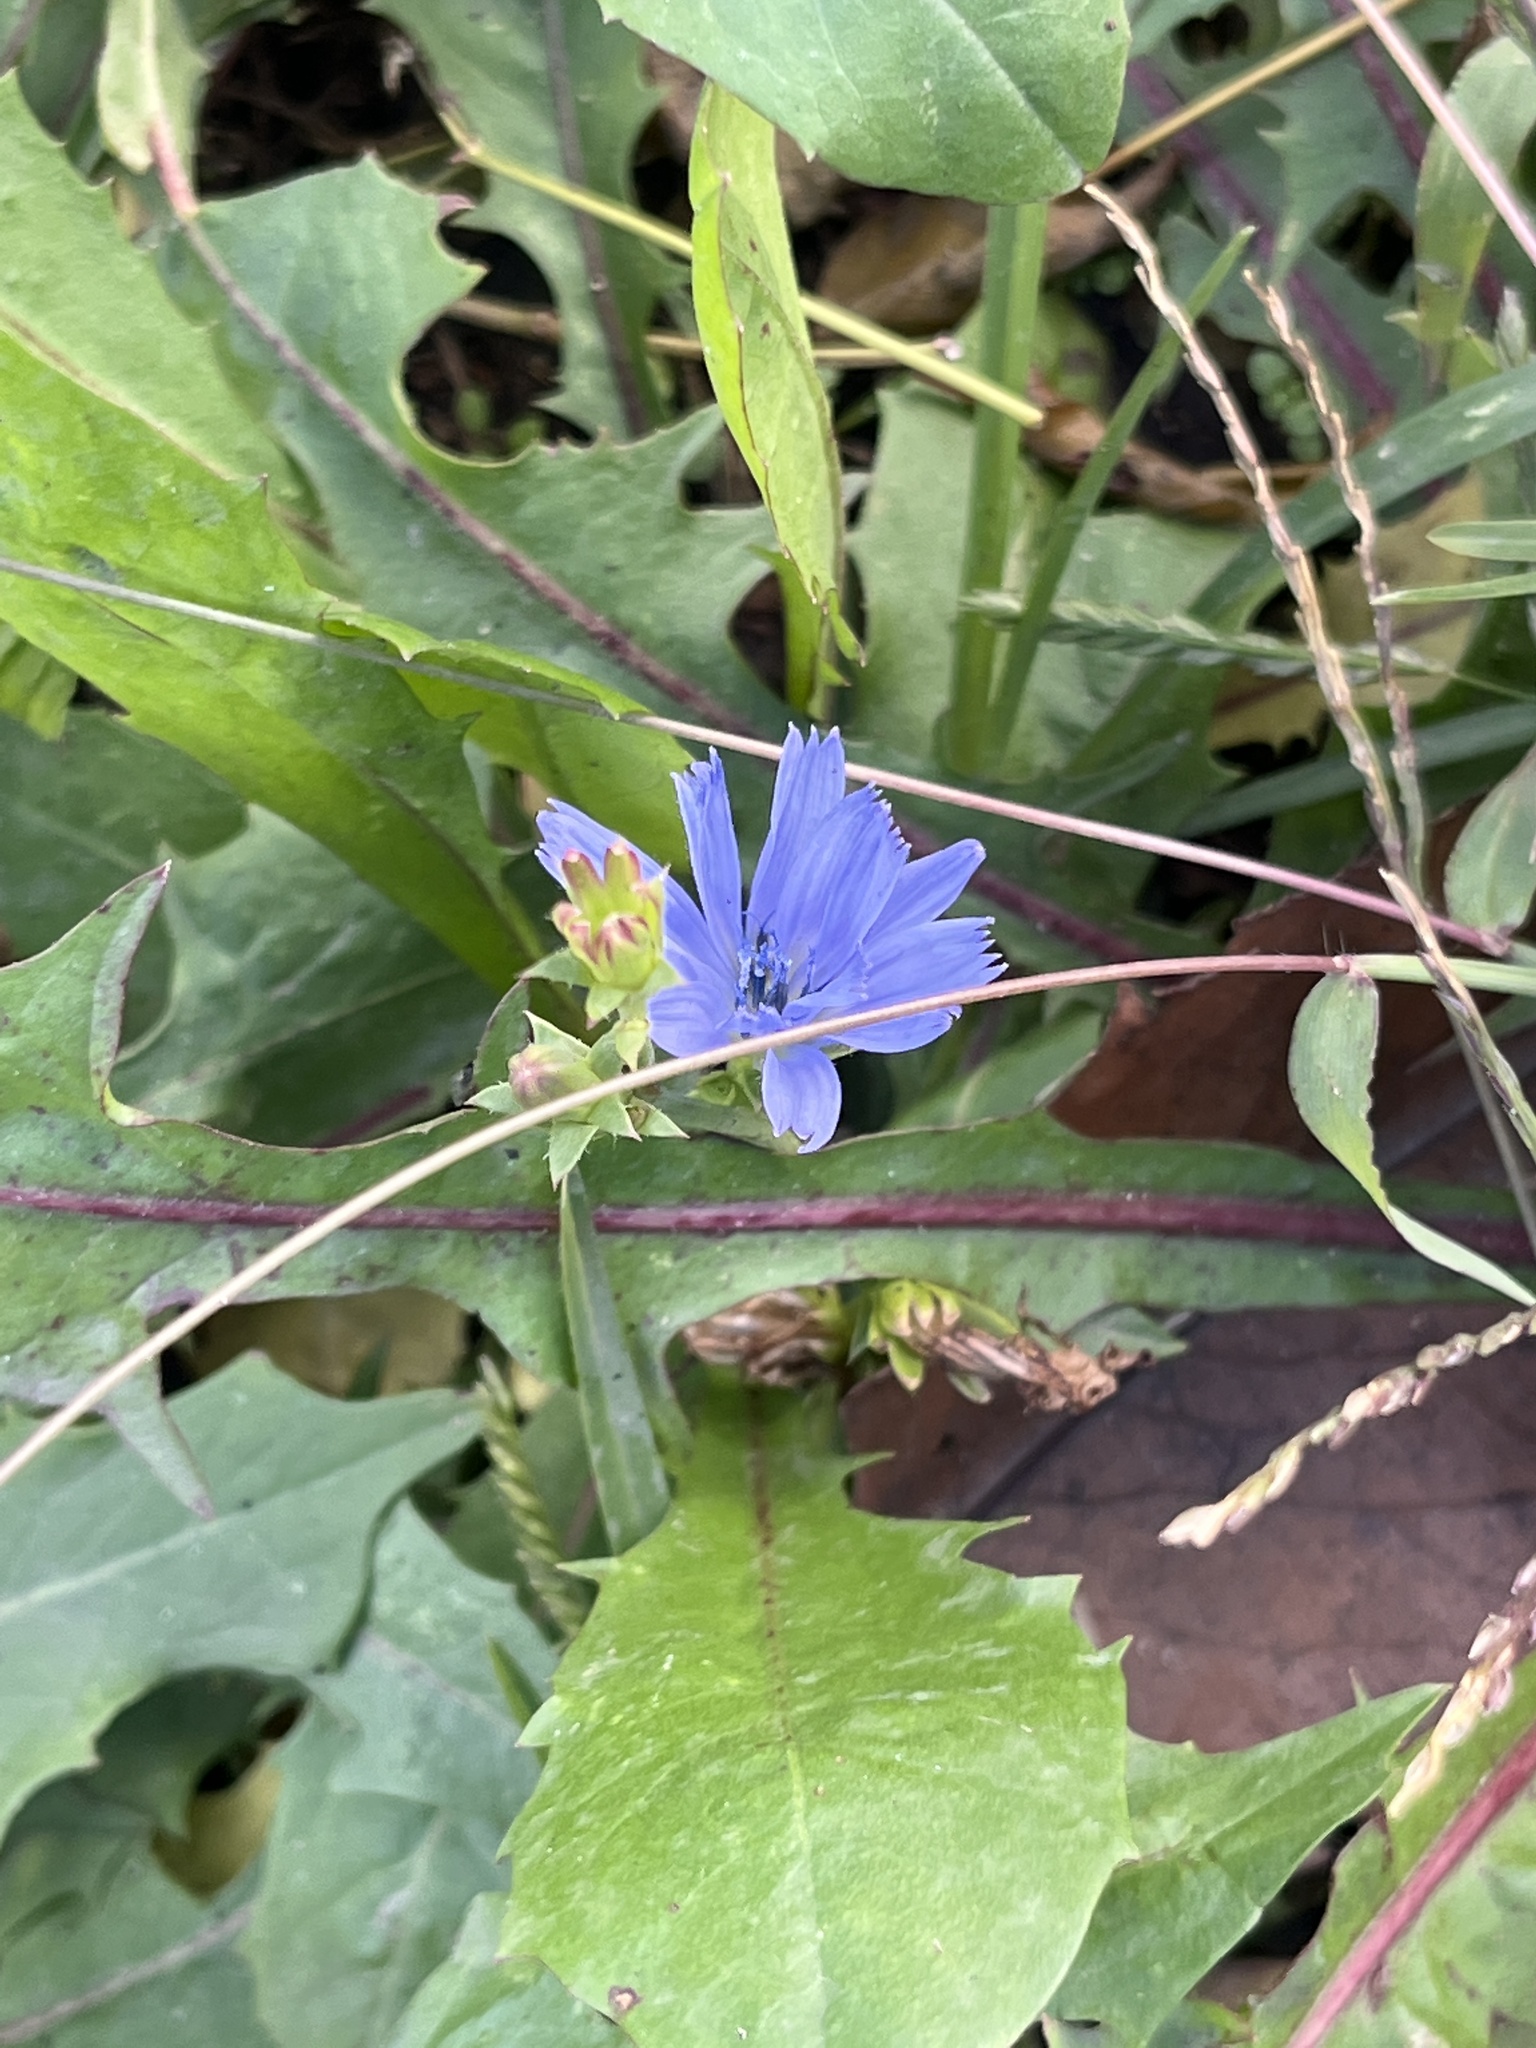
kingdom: Plantae
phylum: Tracheophyta
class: Magnoliopsida
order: Asterales
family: Asteraceae
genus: Cichorium
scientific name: Cichorium intybus
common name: Chicory
